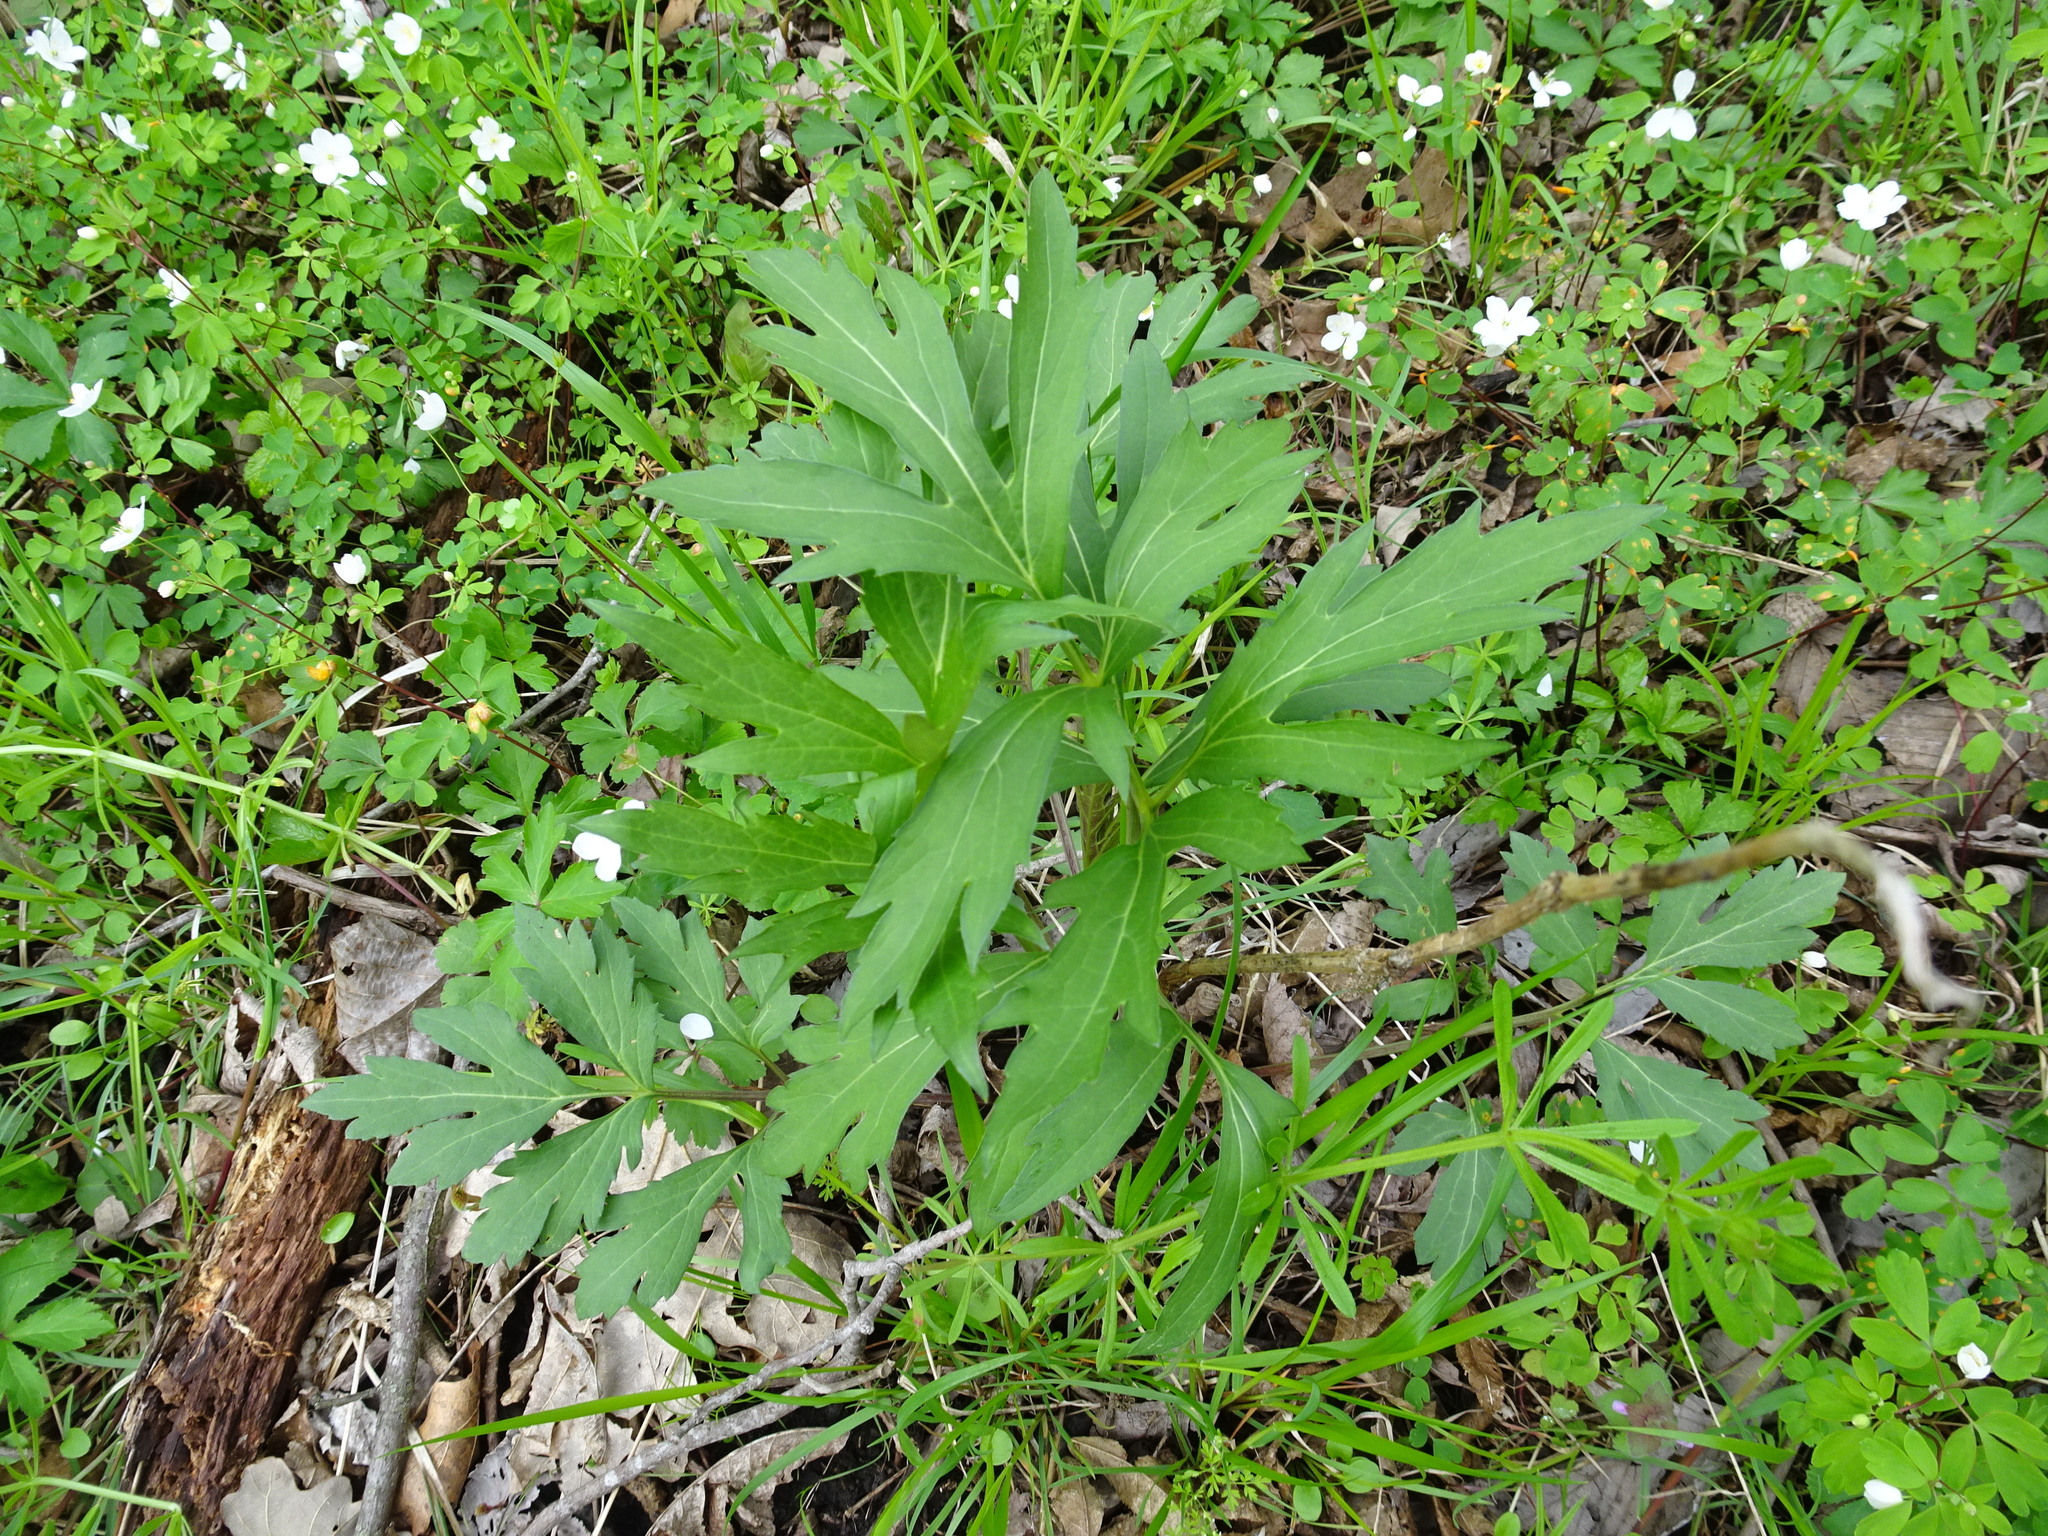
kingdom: Plantae
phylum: Tracheophyta
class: Magnoliopsida
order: Asterales
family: Asteraceae
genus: Rudbeckia
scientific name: Rudbeckia laciniata
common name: Coneflower
